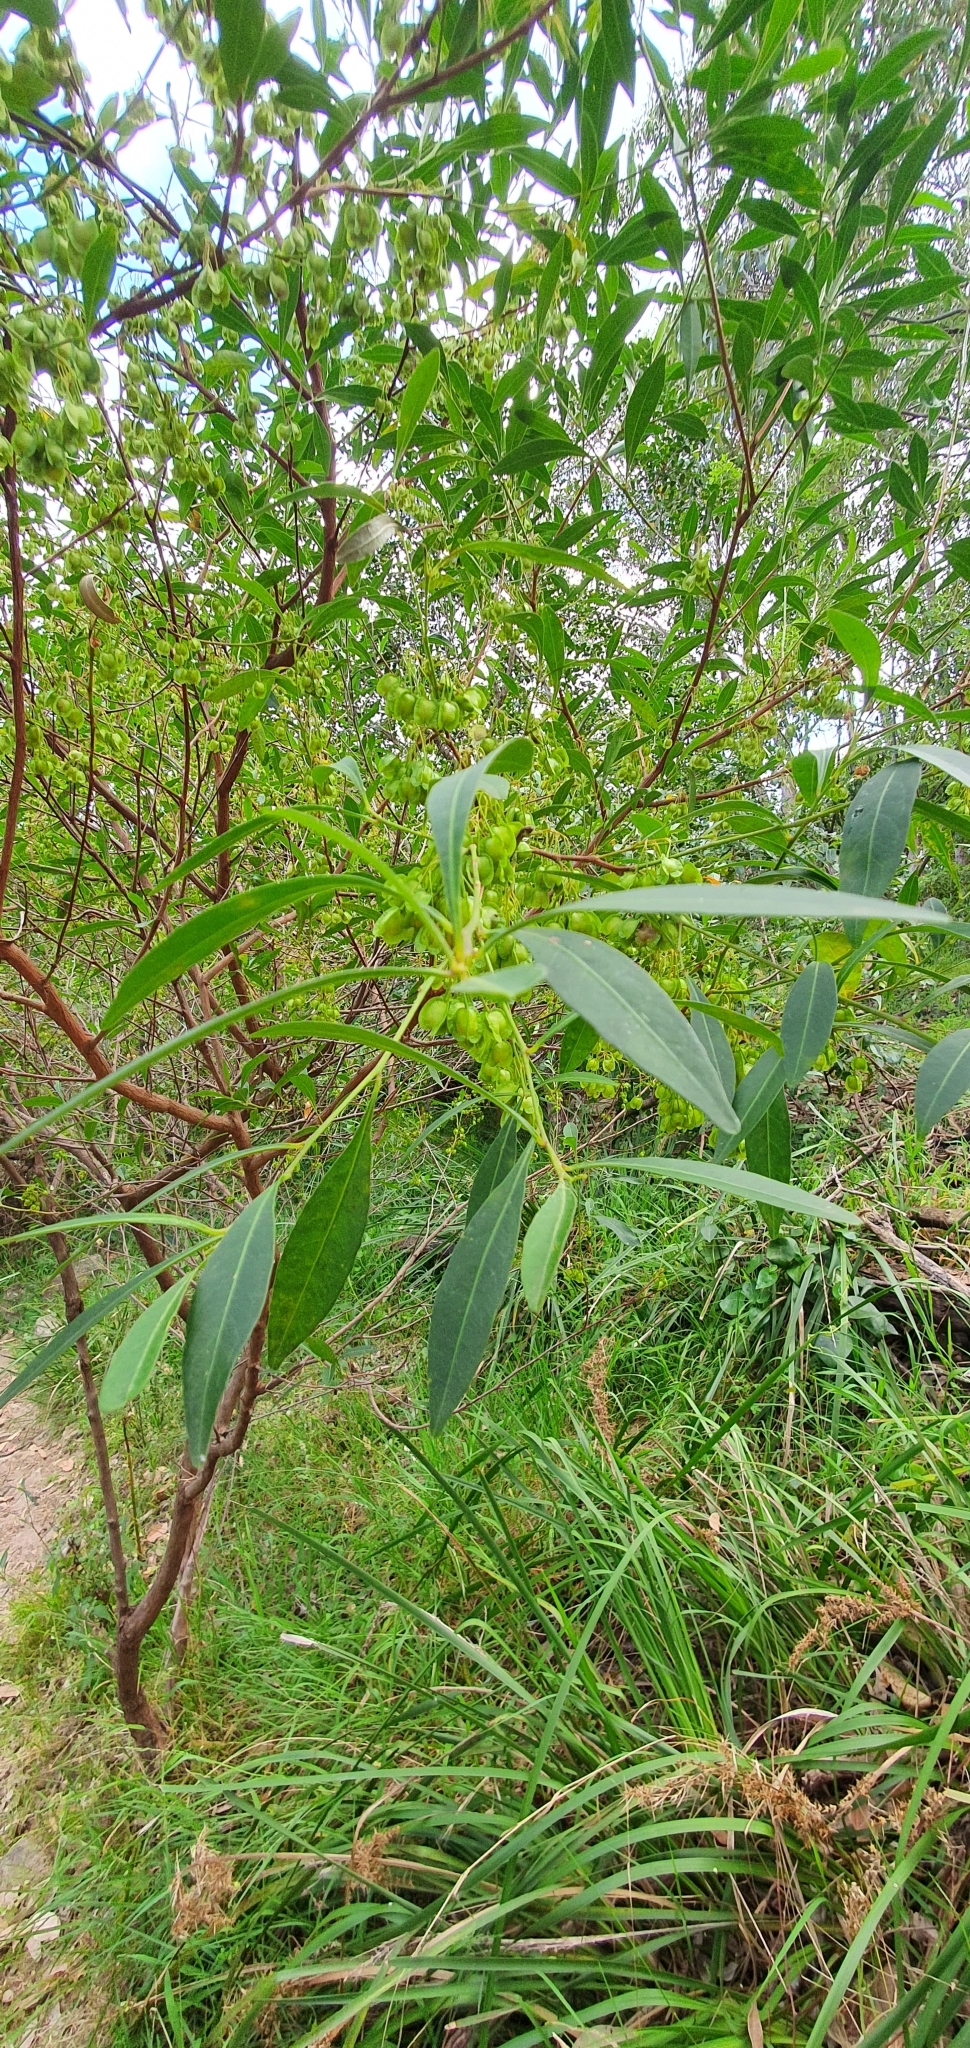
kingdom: Plantae
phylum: Tracheophyta
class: Magnoliopsida
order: Sapindales
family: Sapindaceae
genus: Dodonaea
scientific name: Dodonaea triquetra
